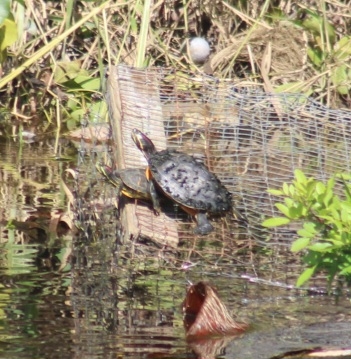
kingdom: Animalia
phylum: Chordata
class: Testudines
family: Emydidae
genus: Trachemys
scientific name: Trachemys scripta
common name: Slider
